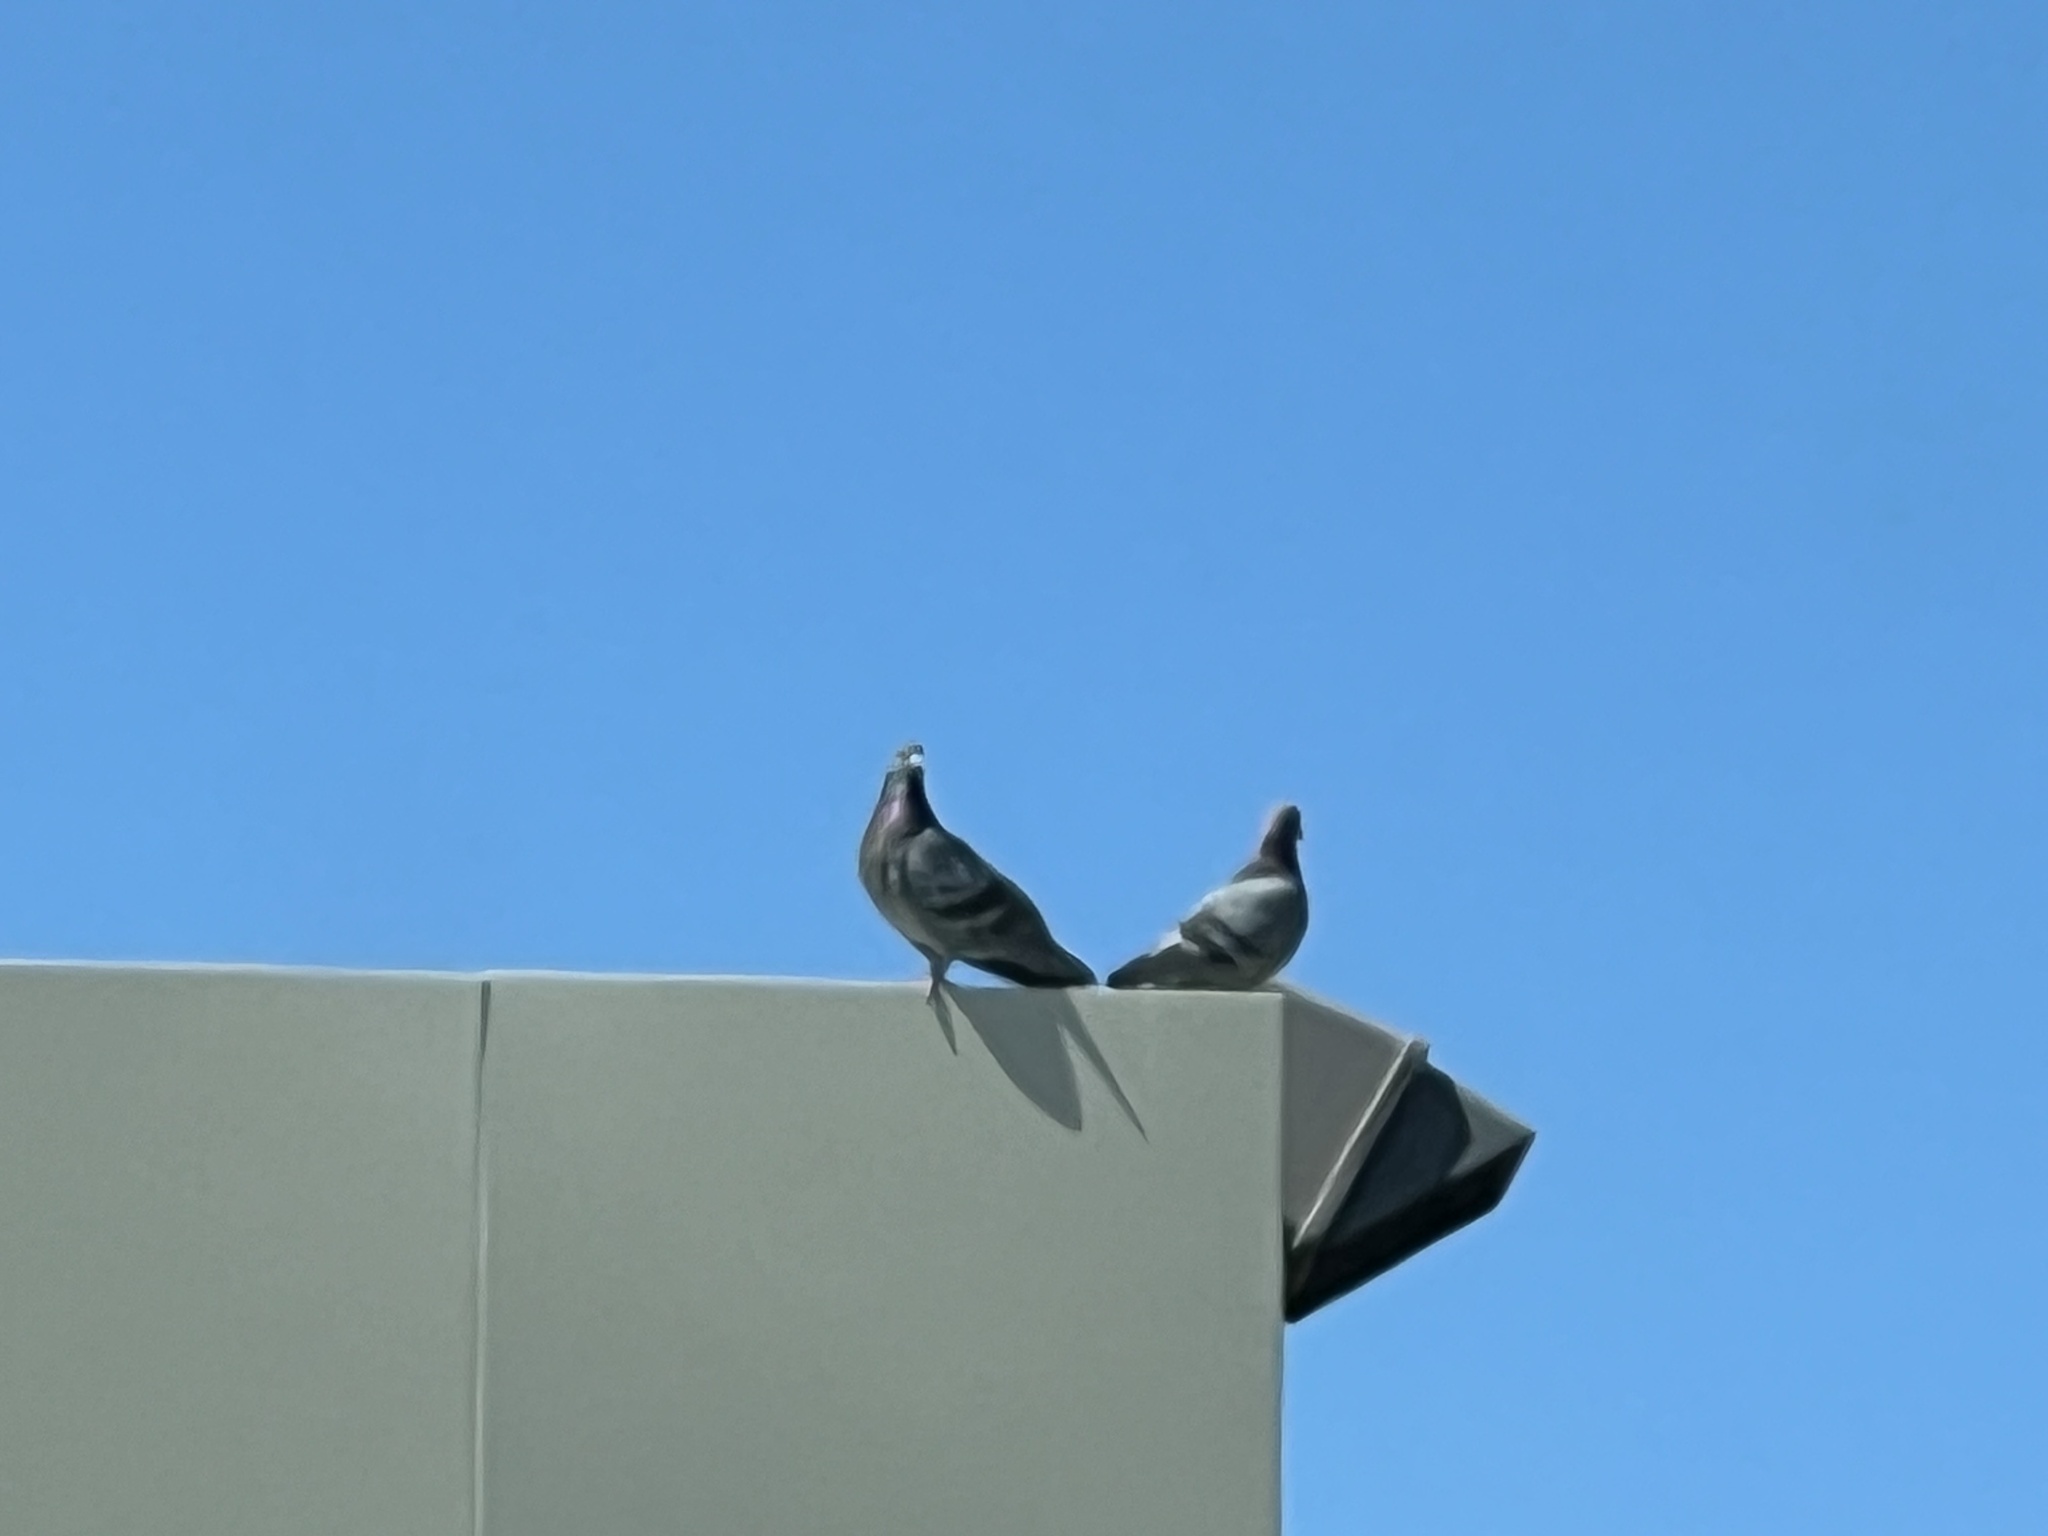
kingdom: Animalia
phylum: Chordata
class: Aves
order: Columbiformes
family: Columbidae
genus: Columba
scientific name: Columba livia
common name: Rock pigeon
